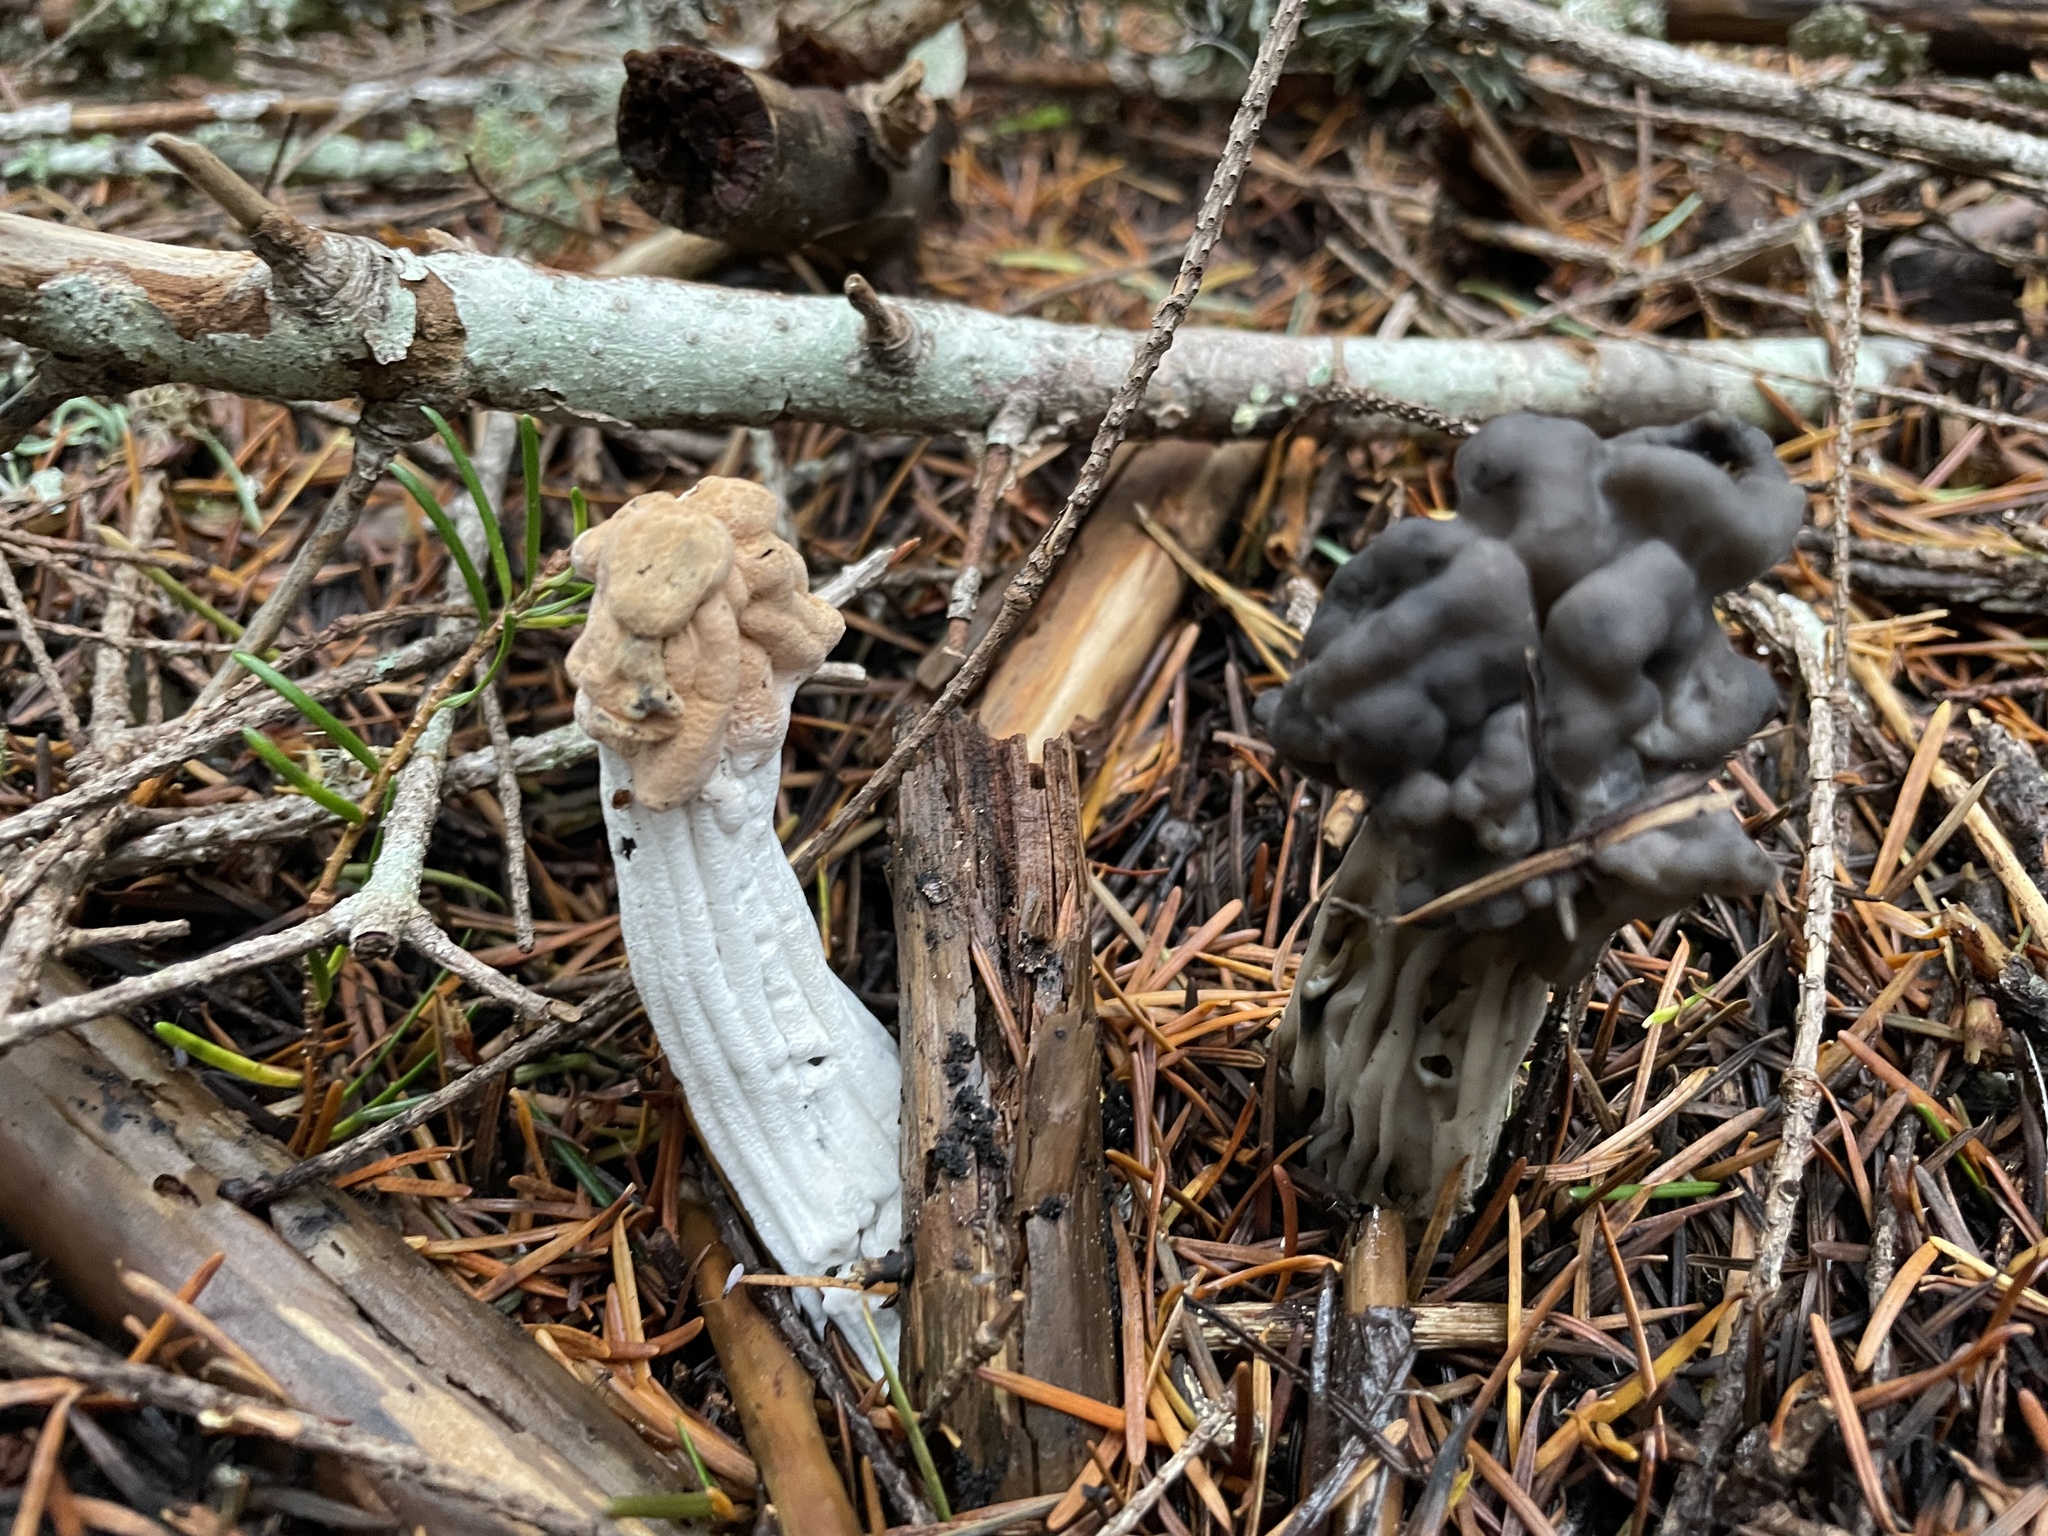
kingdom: Fungi
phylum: Ascomycota
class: Sordariomycetes
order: Hypocreales
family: Hypocreaceae
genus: Hypomyces
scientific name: Hypomyces cervinus
